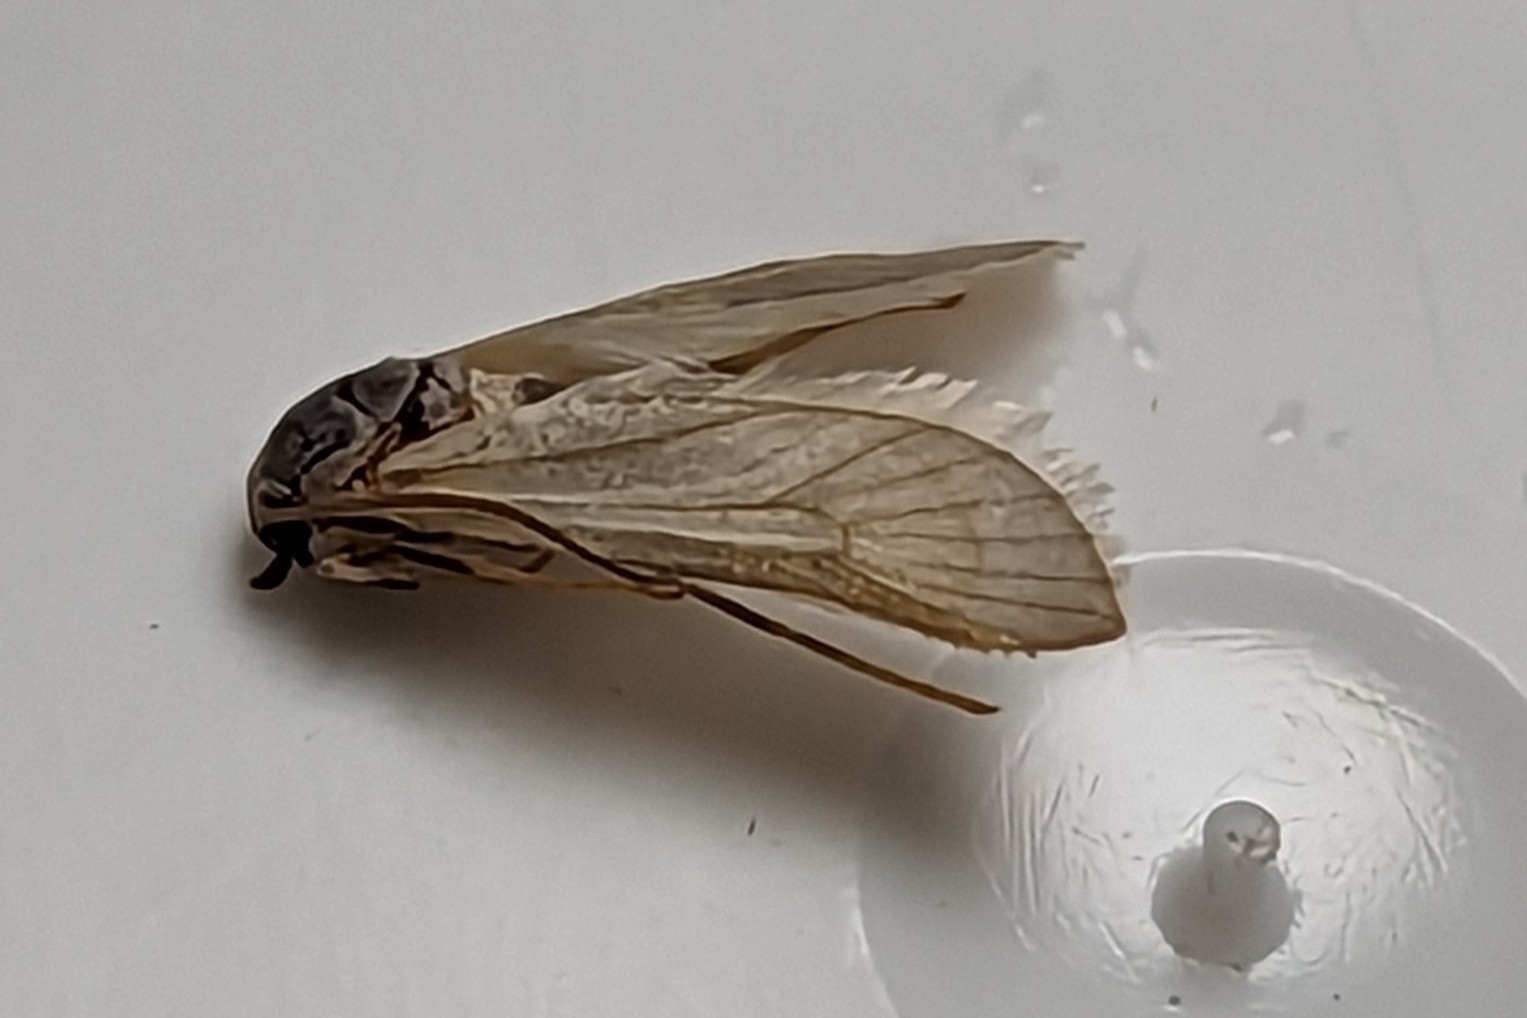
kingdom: Animalia
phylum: Arthropoda
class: Insecta
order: Lepidoptera
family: Crambidae
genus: Acentria
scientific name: Acentria ephemerella
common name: European water moth
